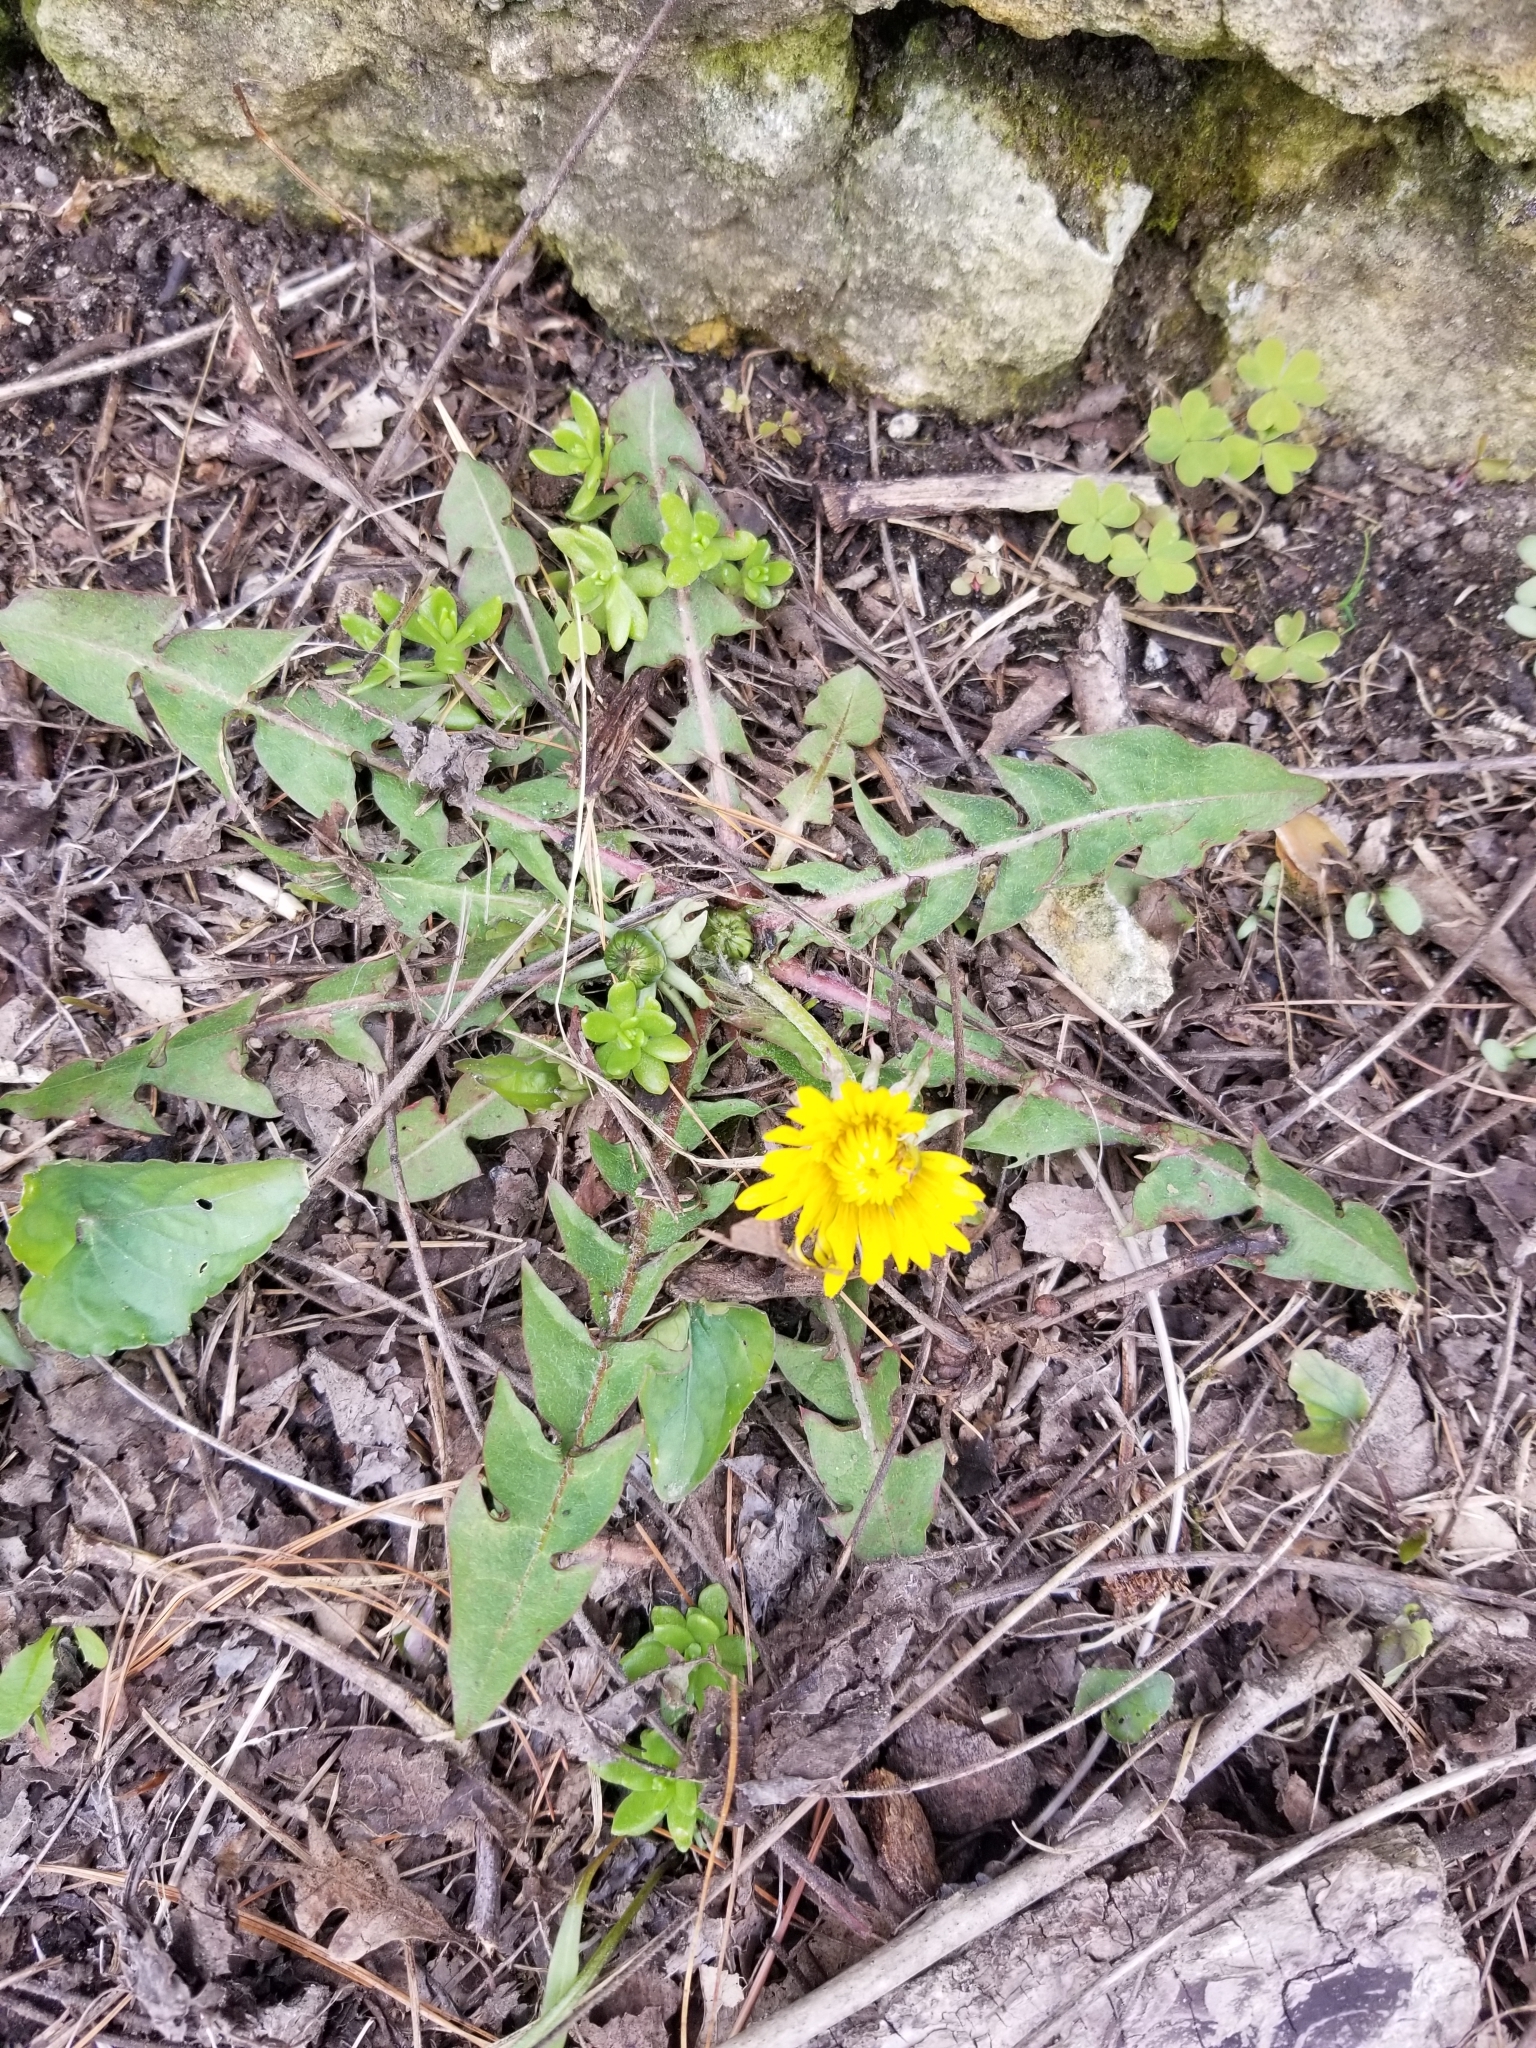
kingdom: Plantae
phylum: Tracheophyta
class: Magnoliopsida
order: Asterales
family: Asteraceae
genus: Taraxacum
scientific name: Taraxacum officinale
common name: Common dandelion
